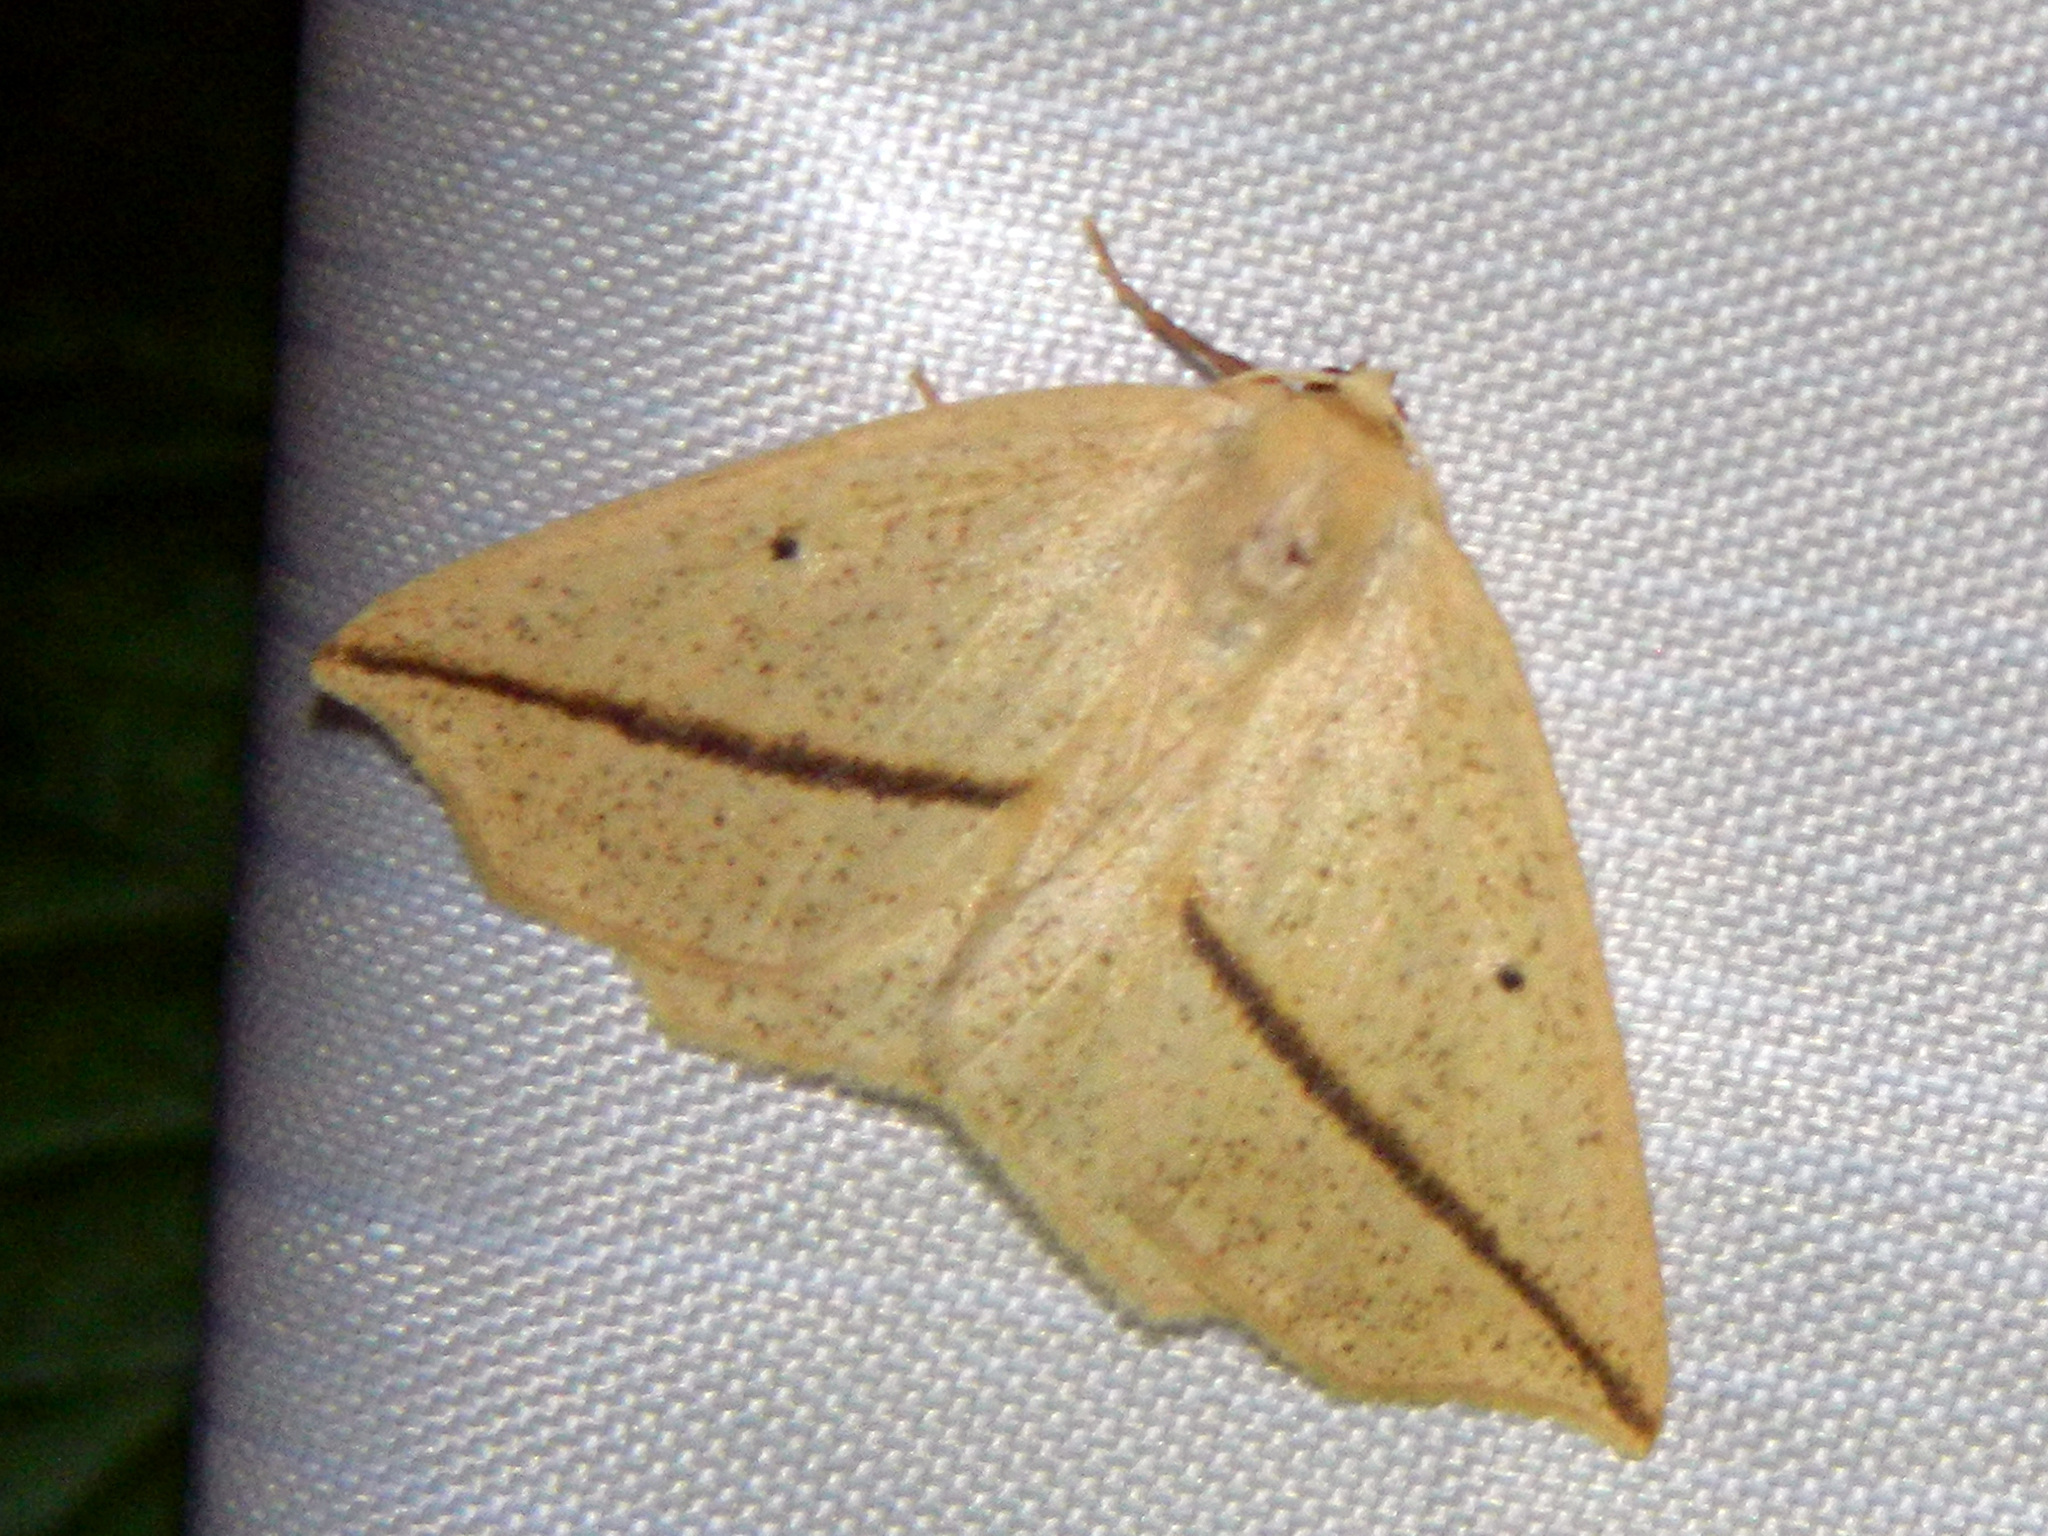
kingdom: Animalia
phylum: Arthropoda
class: Insecta
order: Lepidoptera
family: Geometridae
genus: Tetracis
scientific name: Tetracis crocallata
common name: Yellow slant-line
